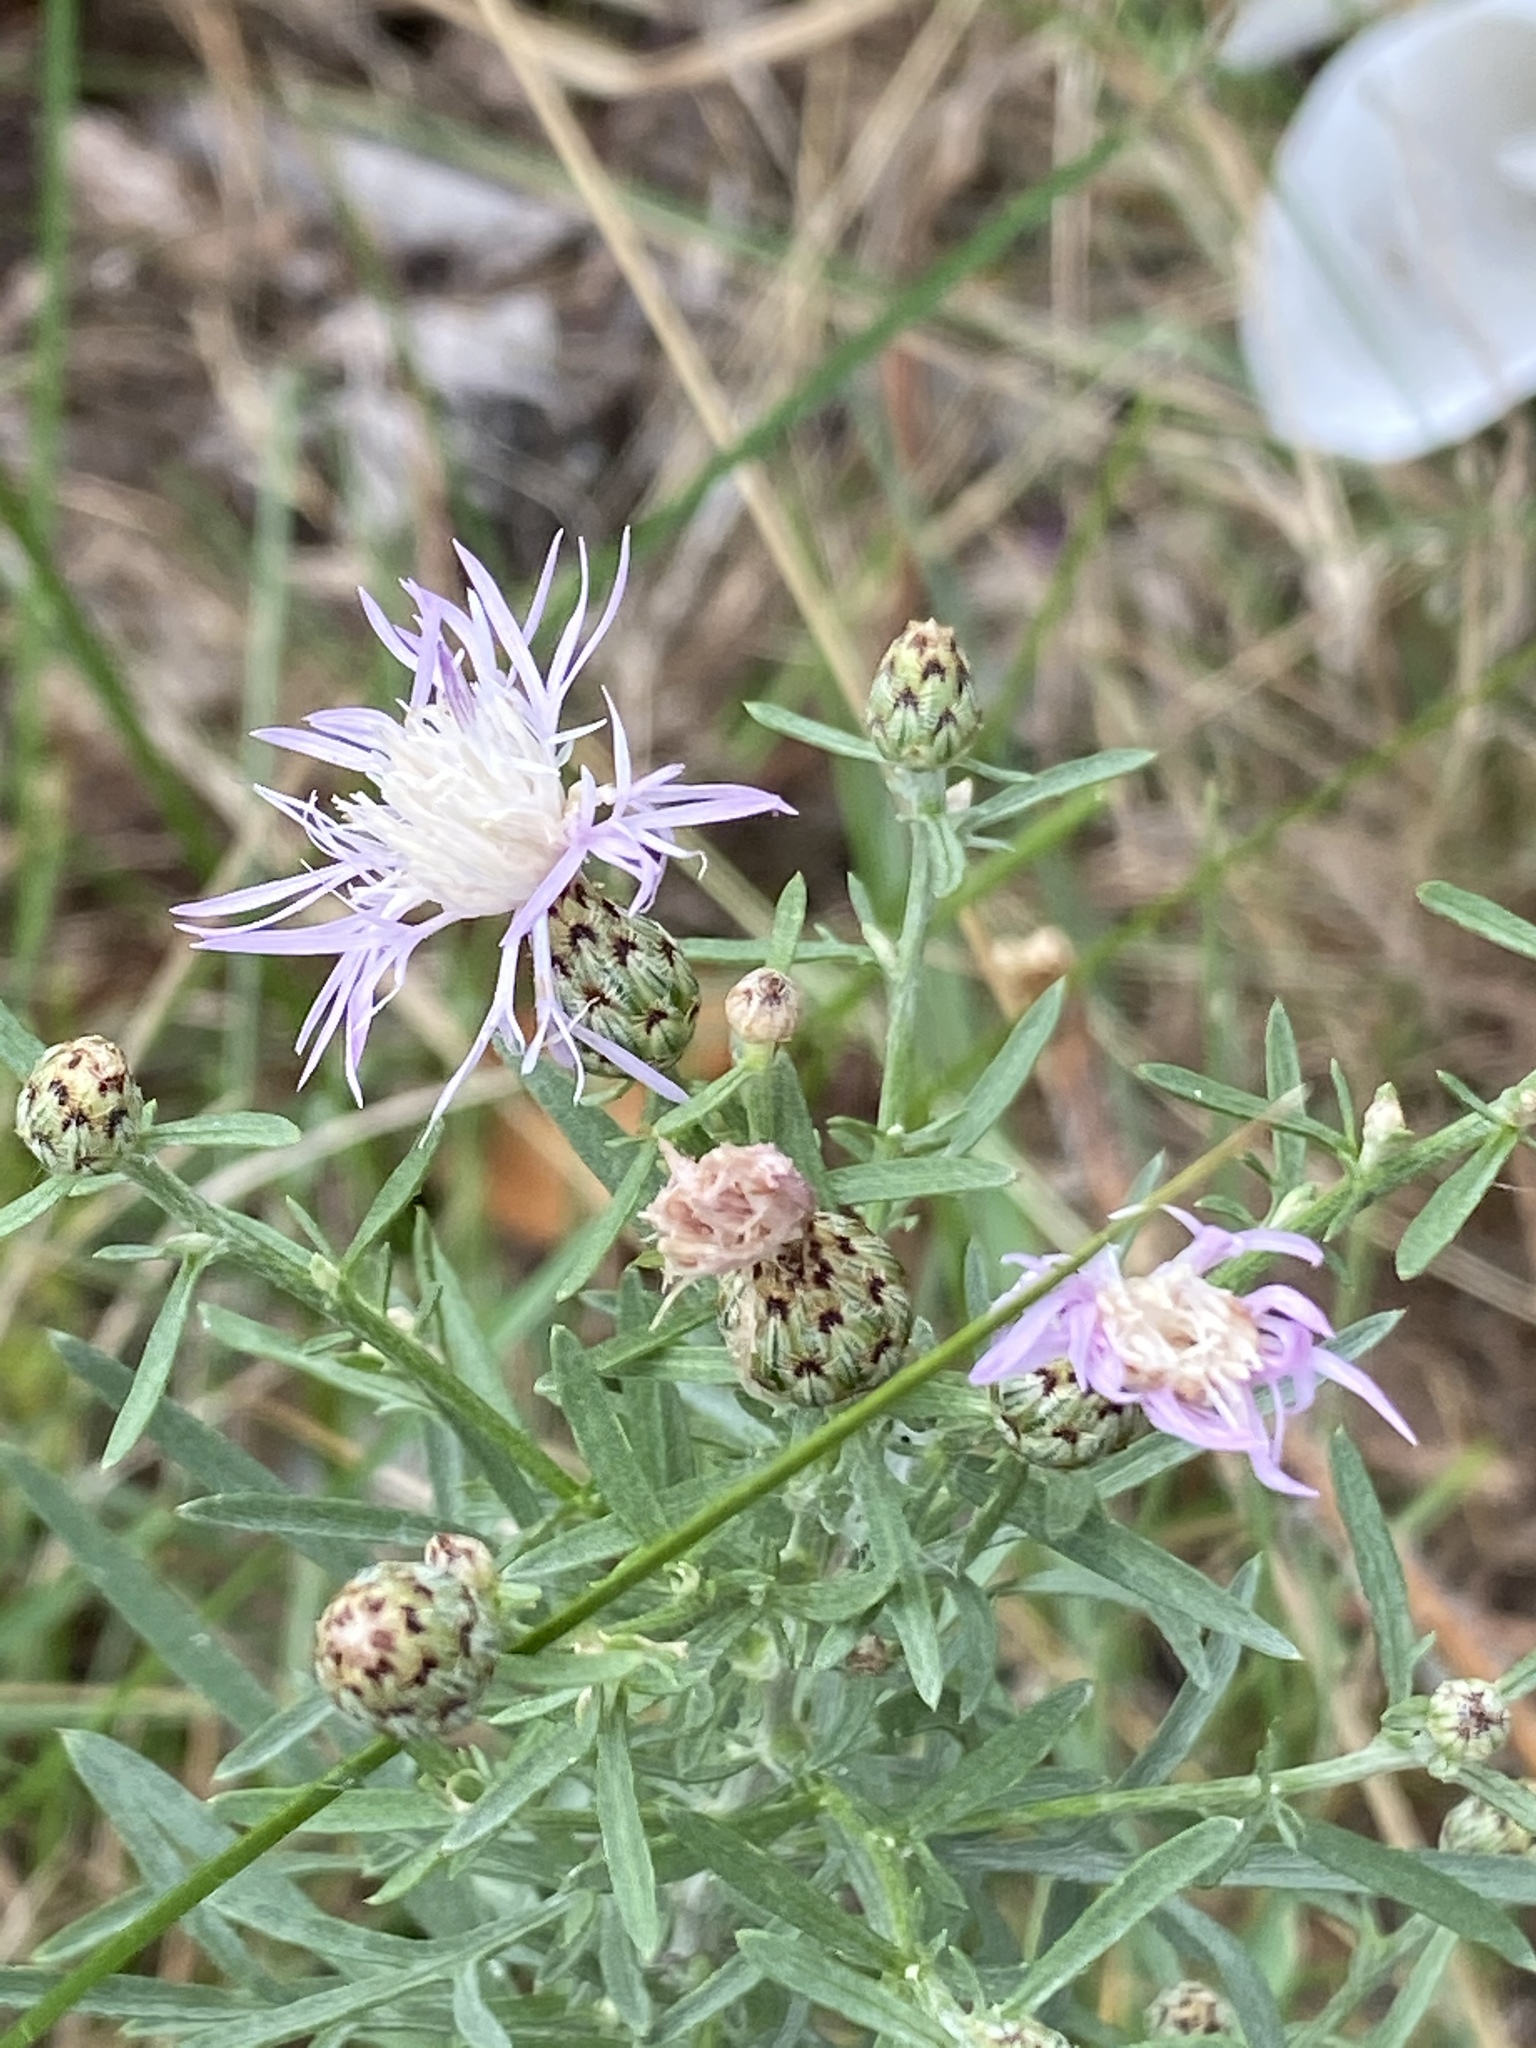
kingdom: Plantae
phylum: Tracheophyta
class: Magnoliopsida
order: Asterales
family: Asteraceae
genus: Centaurea
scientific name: Centaurea stoebe
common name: Spotted knapweed
